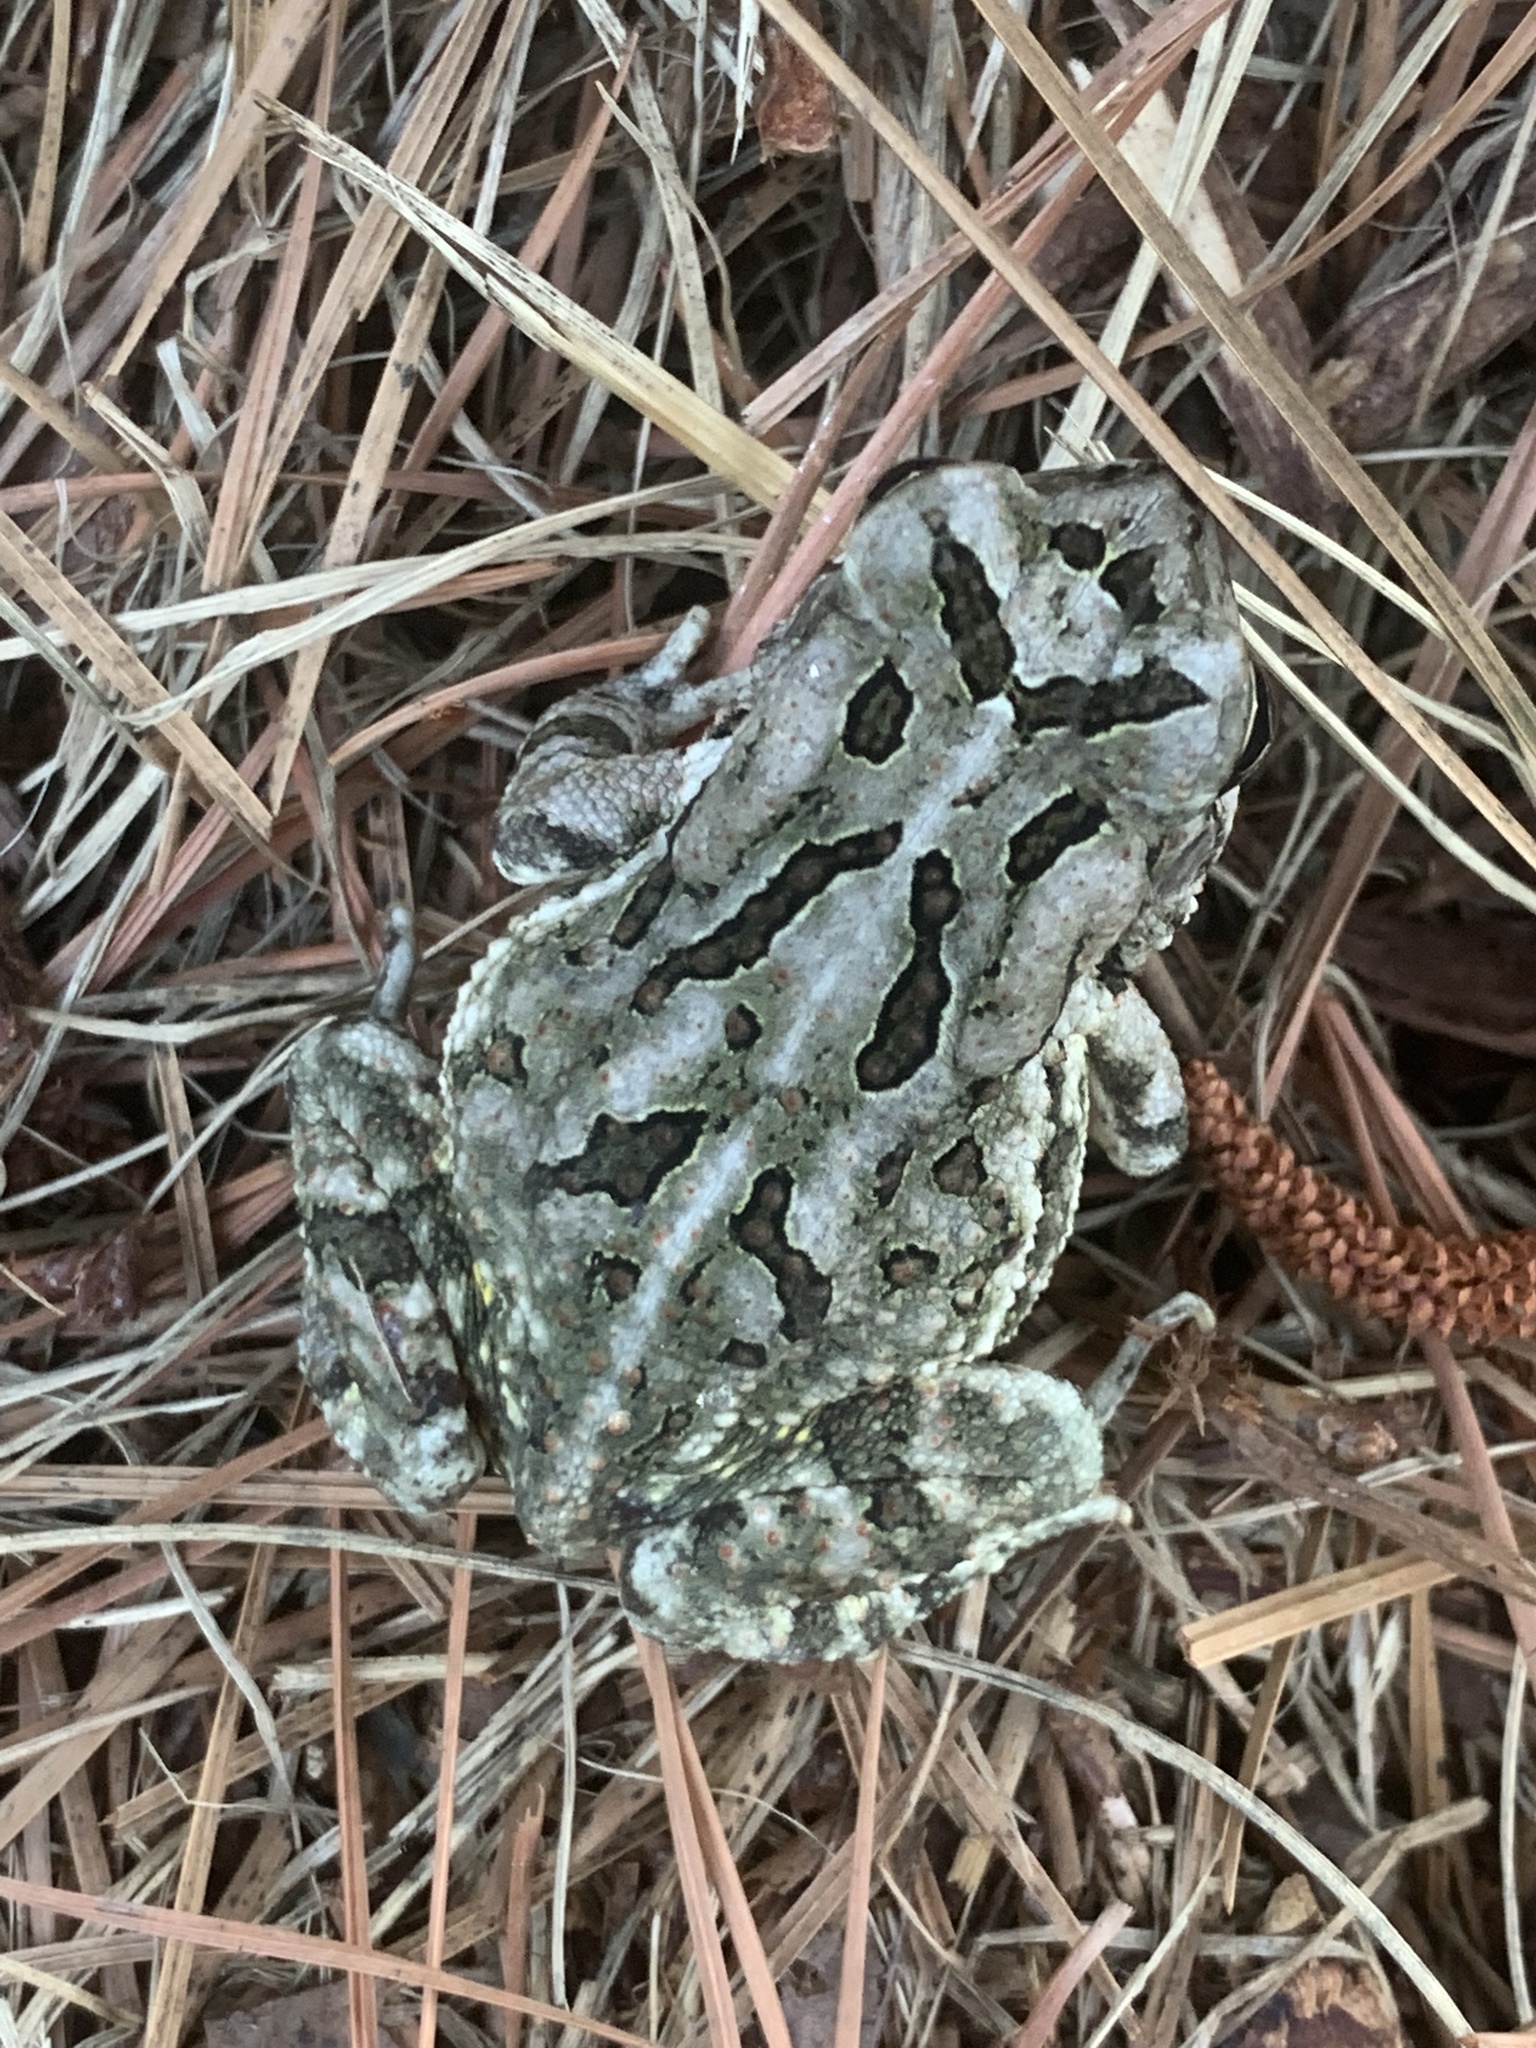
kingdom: Animalia
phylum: Chordata
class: Amphibia
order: Anura
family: Bufonidae
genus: Anaxyrus
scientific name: Anaxyrus fowleri
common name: Fowler's toad
